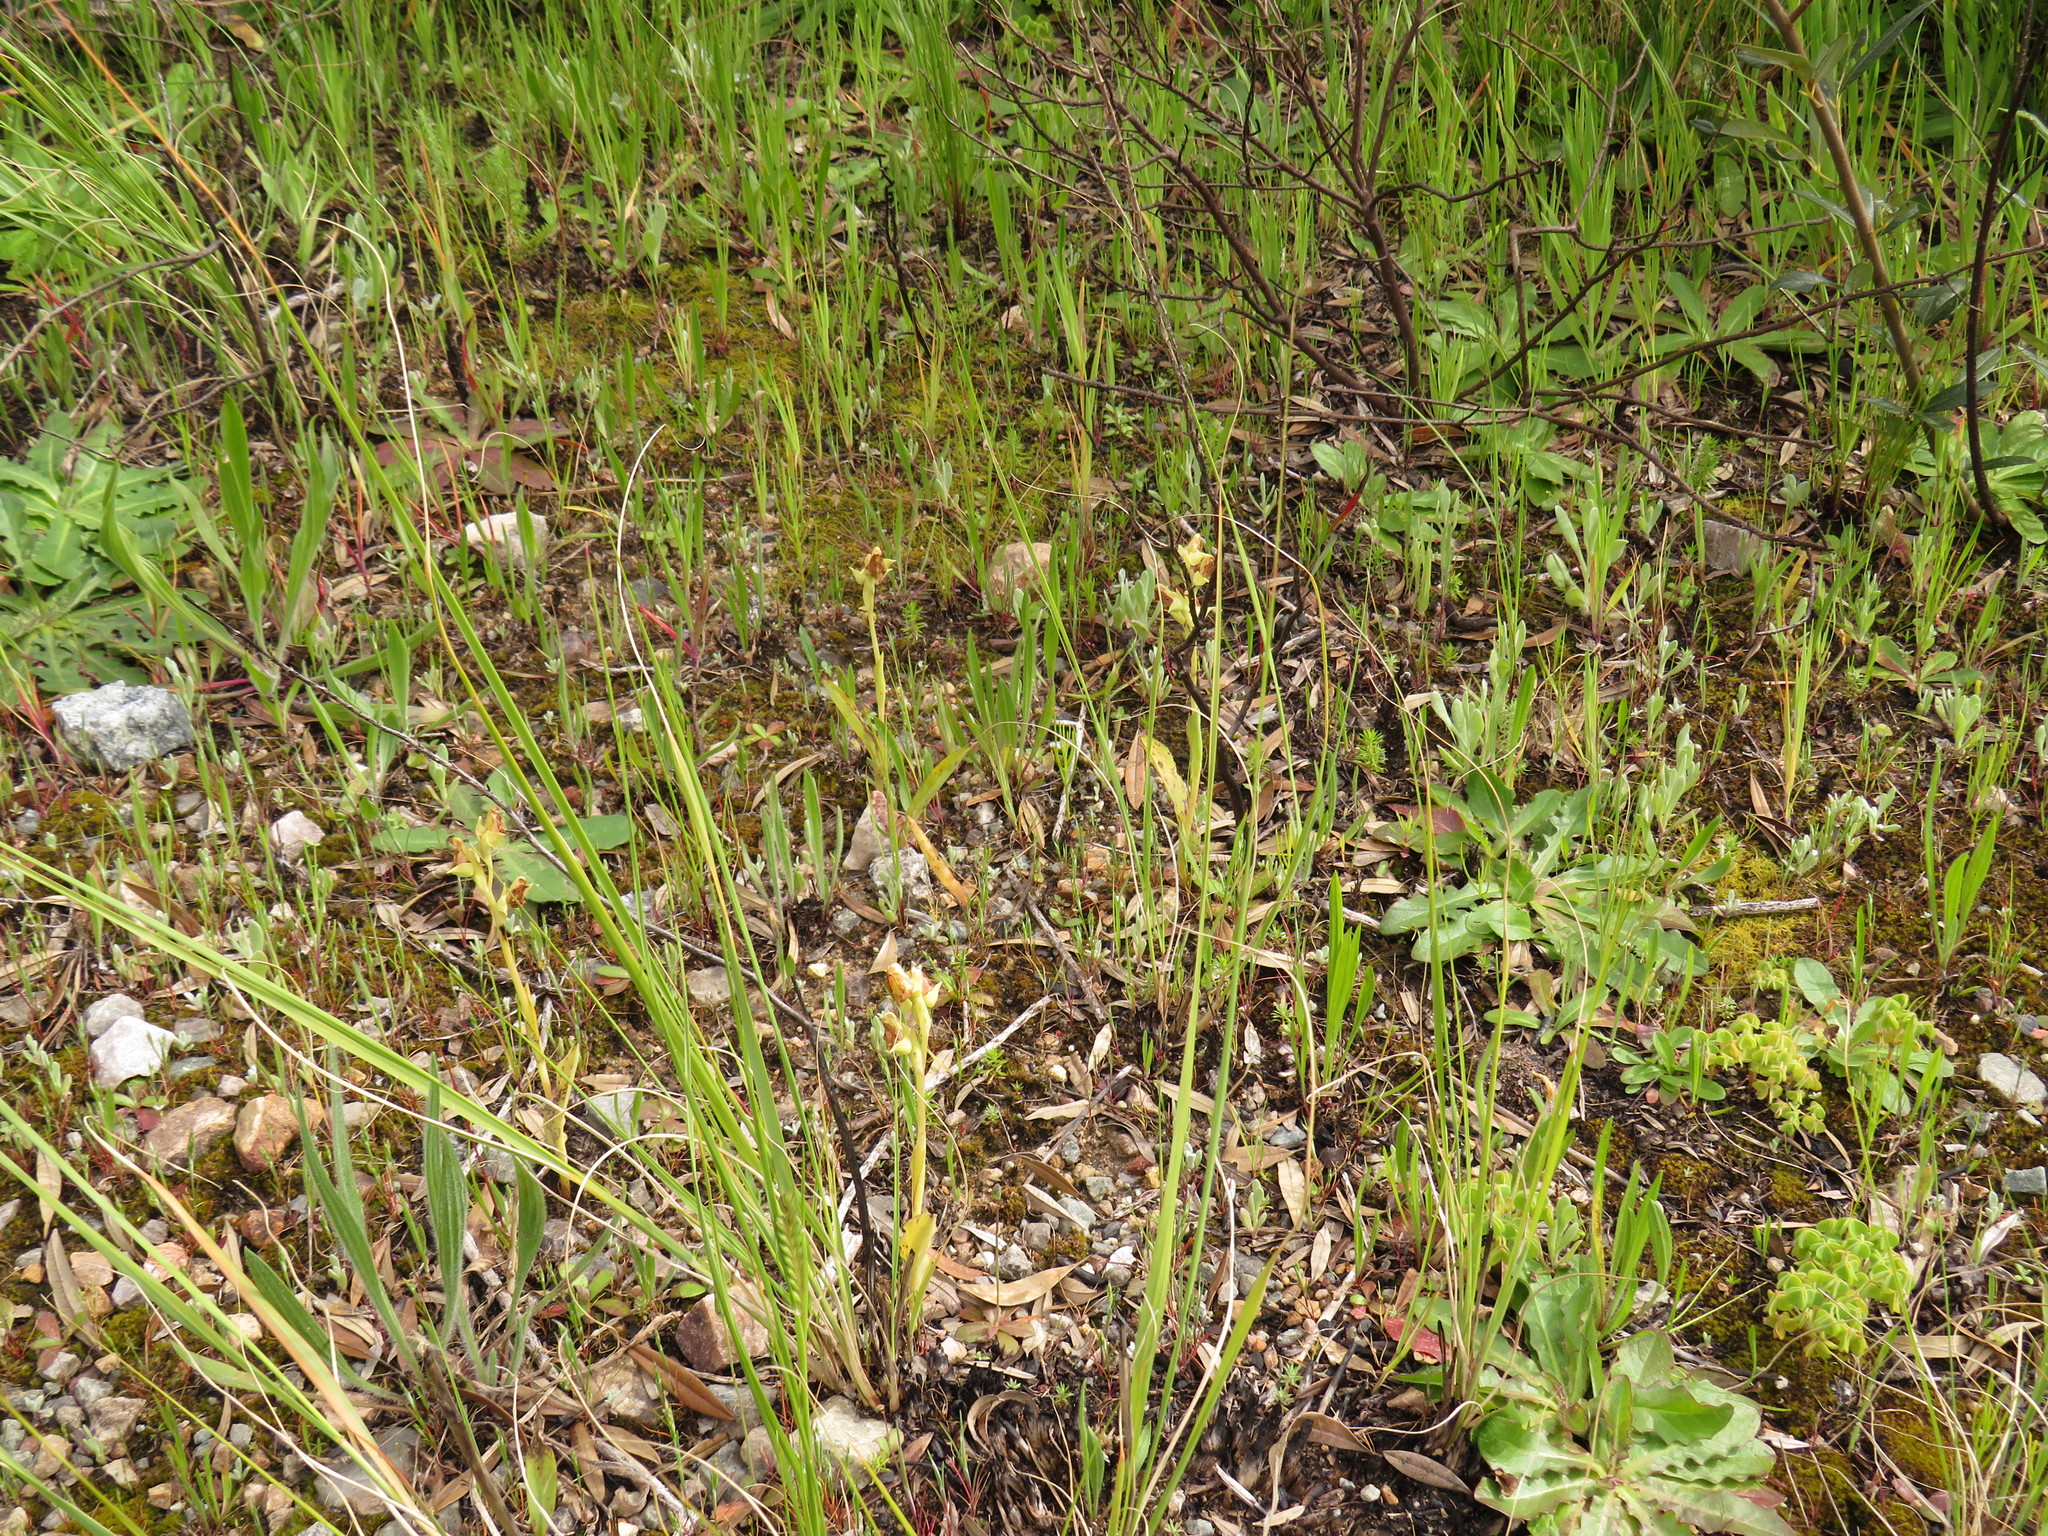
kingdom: Plantae
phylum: Tracheophyta
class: Liliopsida
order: Asparagales
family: Orchidaceae
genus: Pterygodium
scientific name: Pterygodium catholicum
